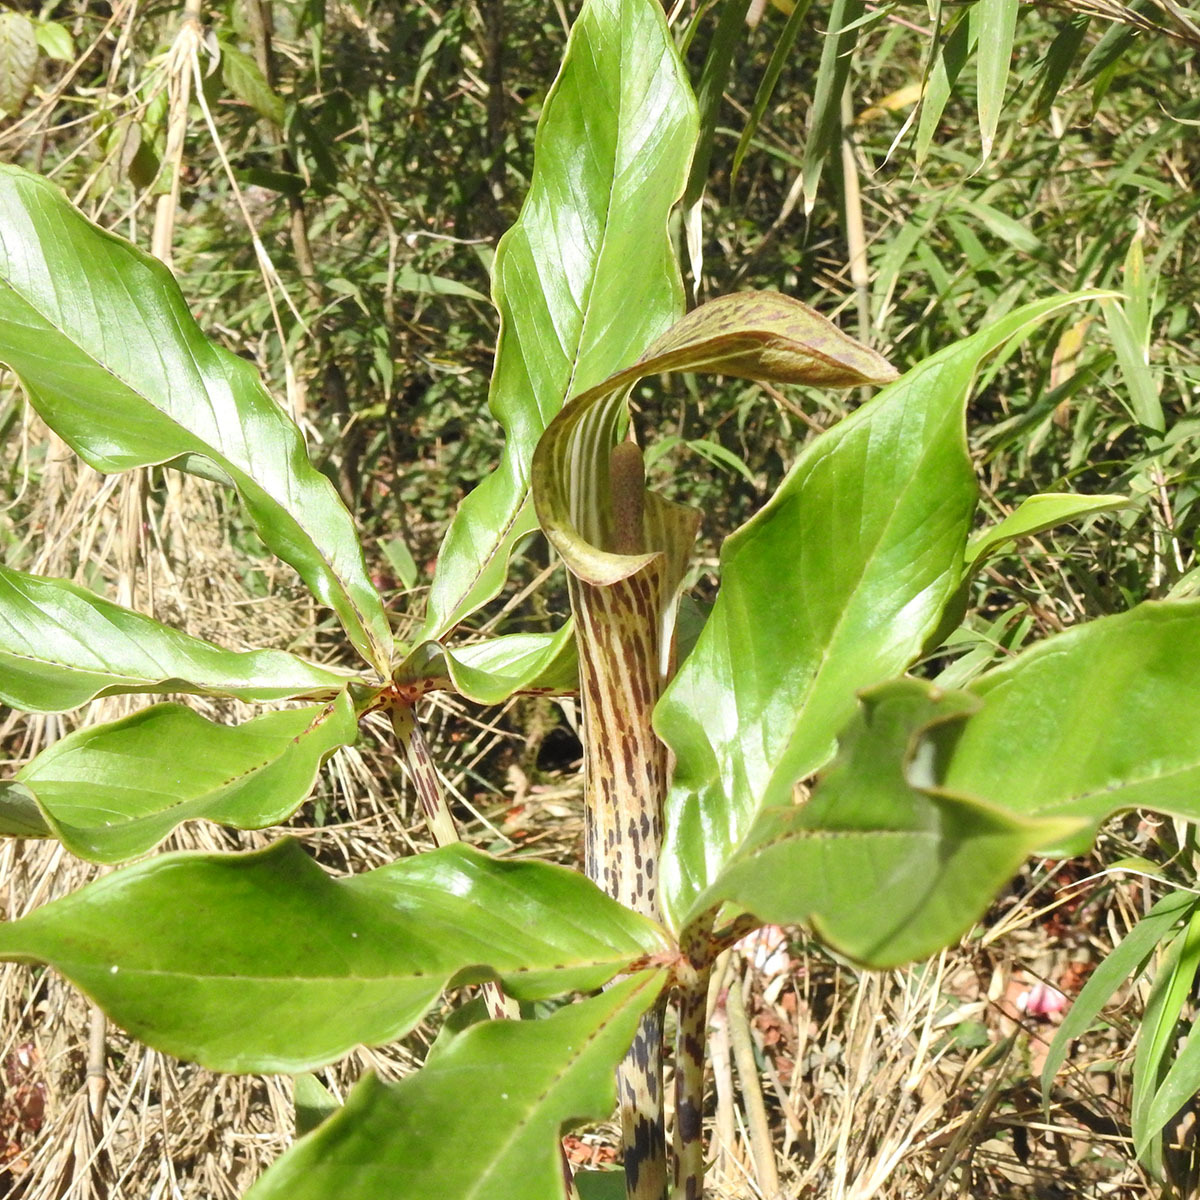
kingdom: Plantae
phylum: Tracheophyta
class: Liliopsida
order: Alismatales
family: Araceae
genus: Arisaema
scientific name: Arisaema nepenthoides
